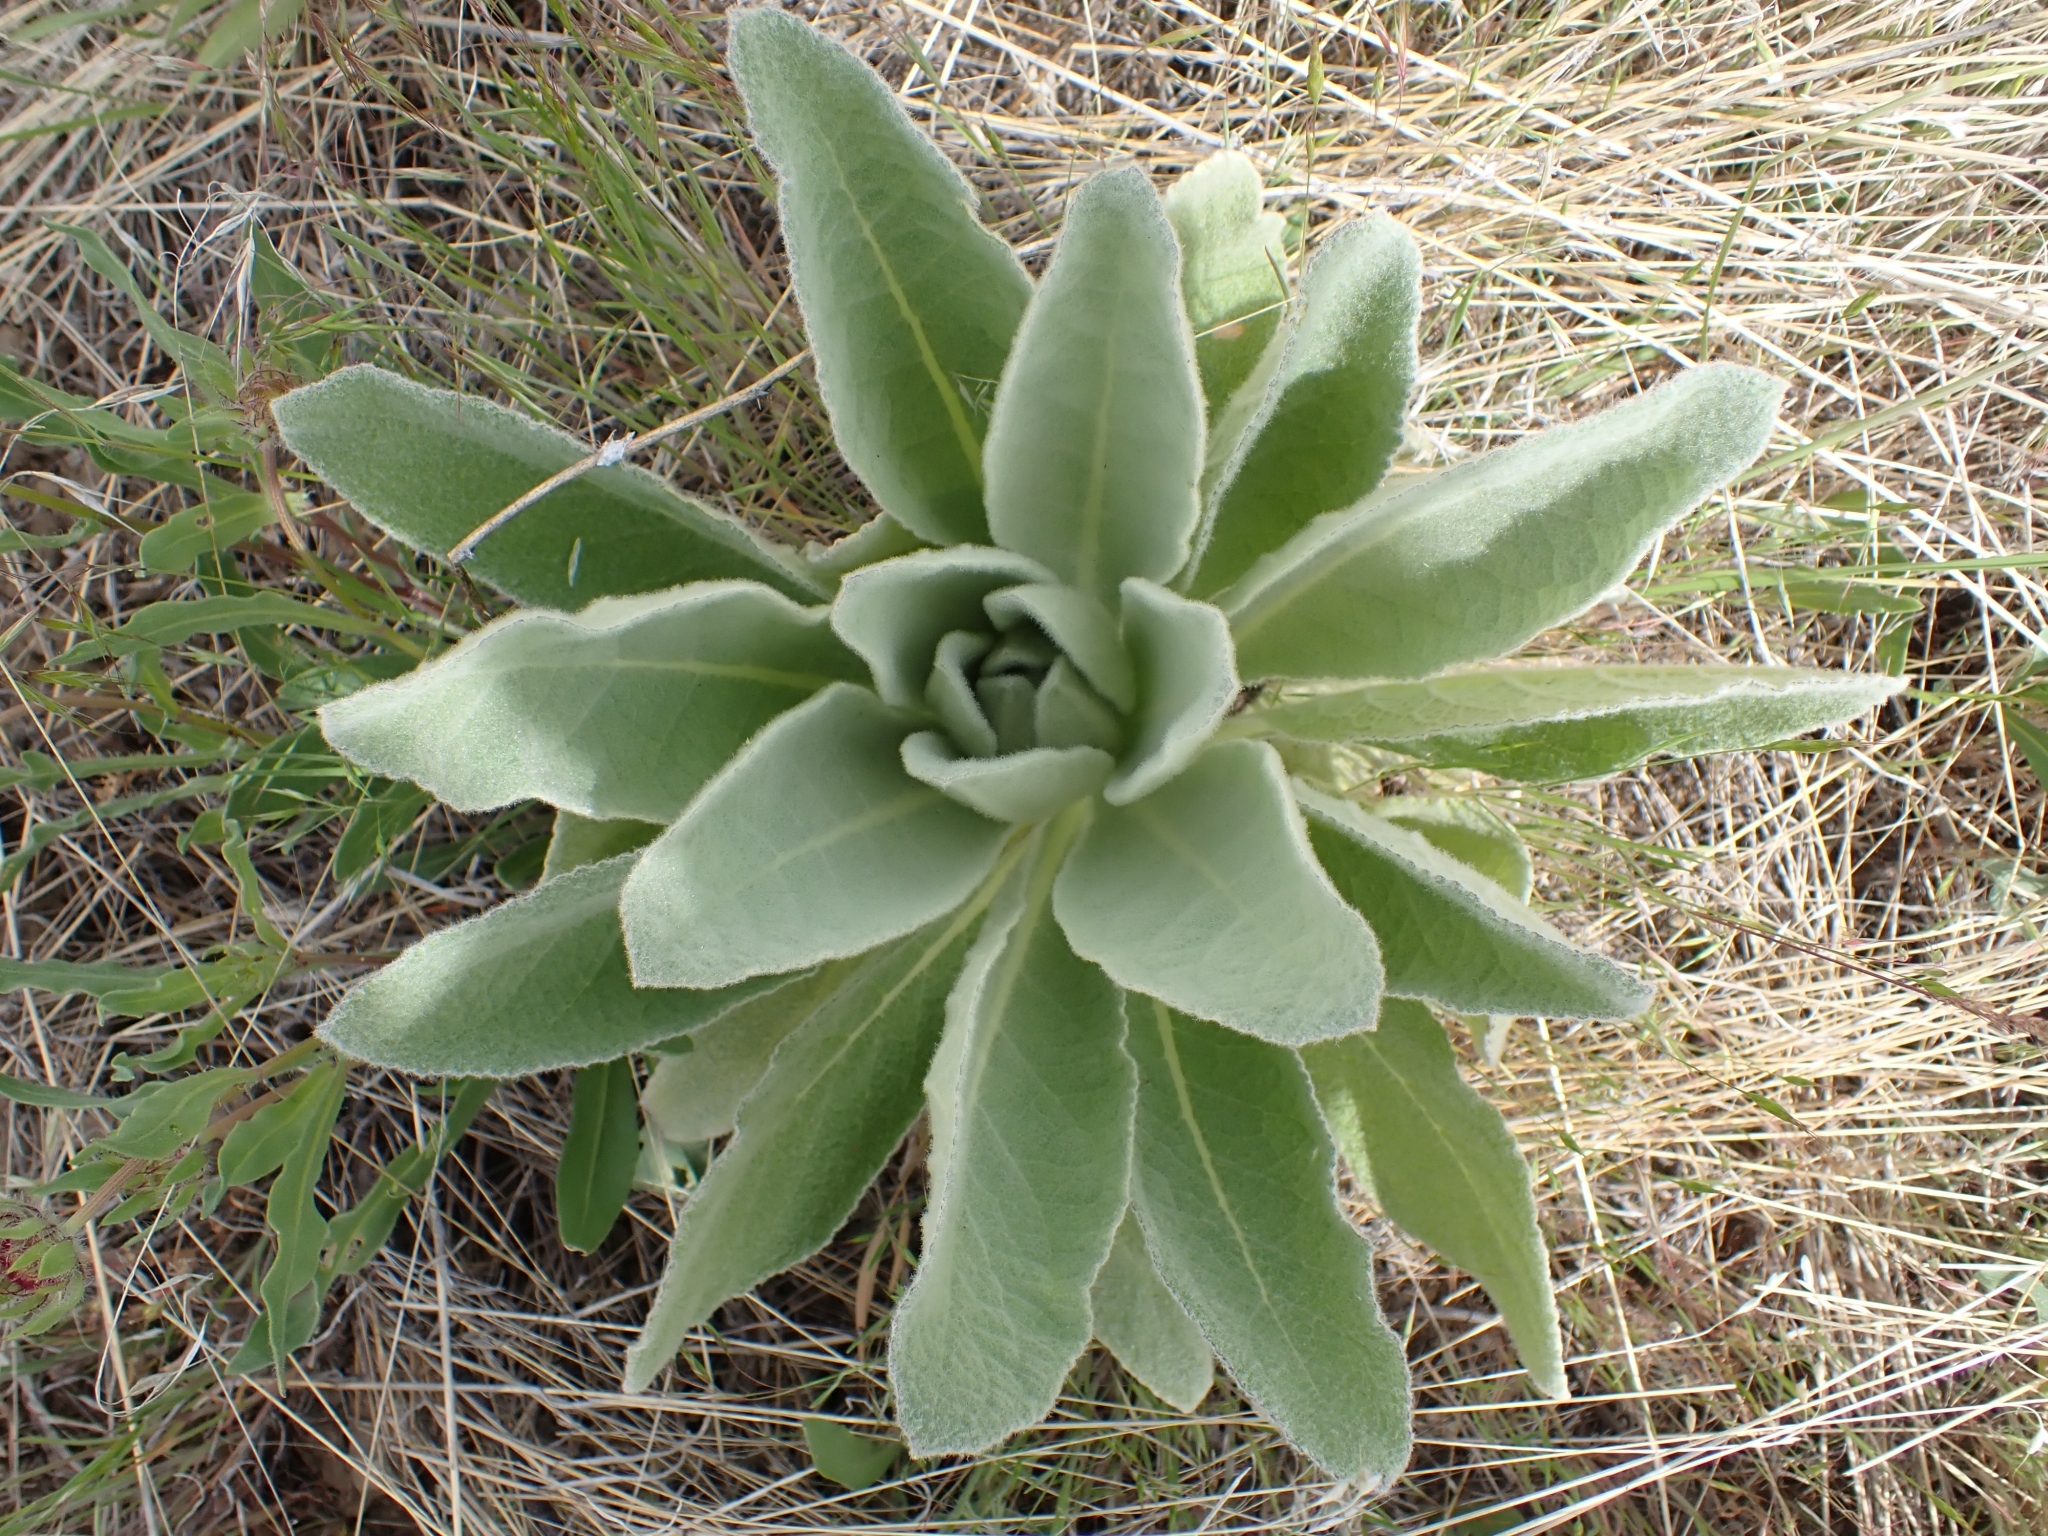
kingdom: Plantae
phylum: Tracheophyta
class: Magnoliopsida
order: Lamiales
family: Scrophulariaceae
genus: Verbascum
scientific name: Verbascum thapsus
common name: Common mullein
